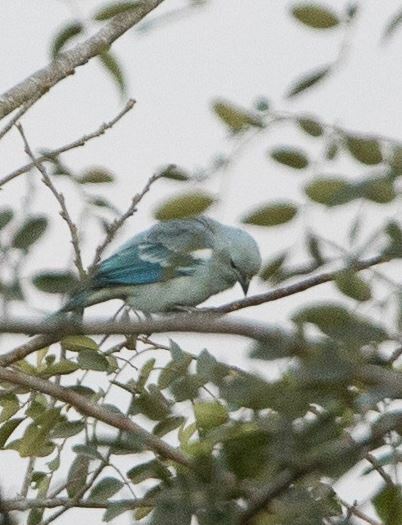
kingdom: Animalia
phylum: Chordata
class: Aves
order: Passeriformes
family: Thraupidae
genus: Thraupis
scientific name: Thraupis episcopus
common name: Blue-grey tanager
